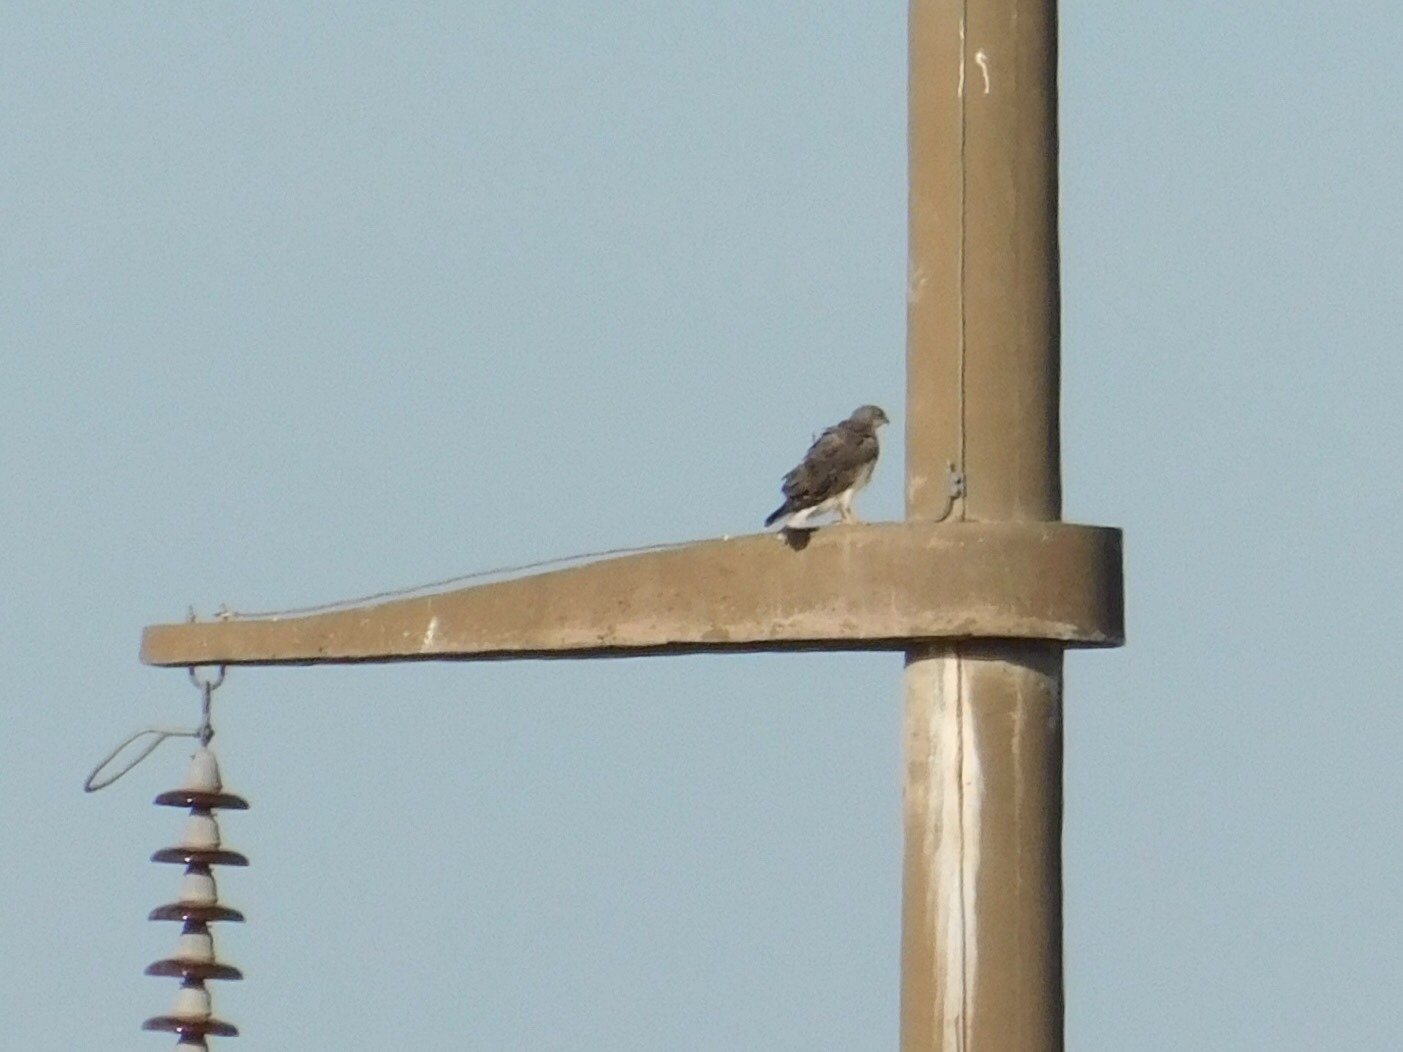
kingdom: Animalia
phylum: Chordata
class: Aves
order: Accipitriformes
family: Accipitridae
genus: Buteo
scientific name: Buteo polyosoma
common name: Variable hawk
